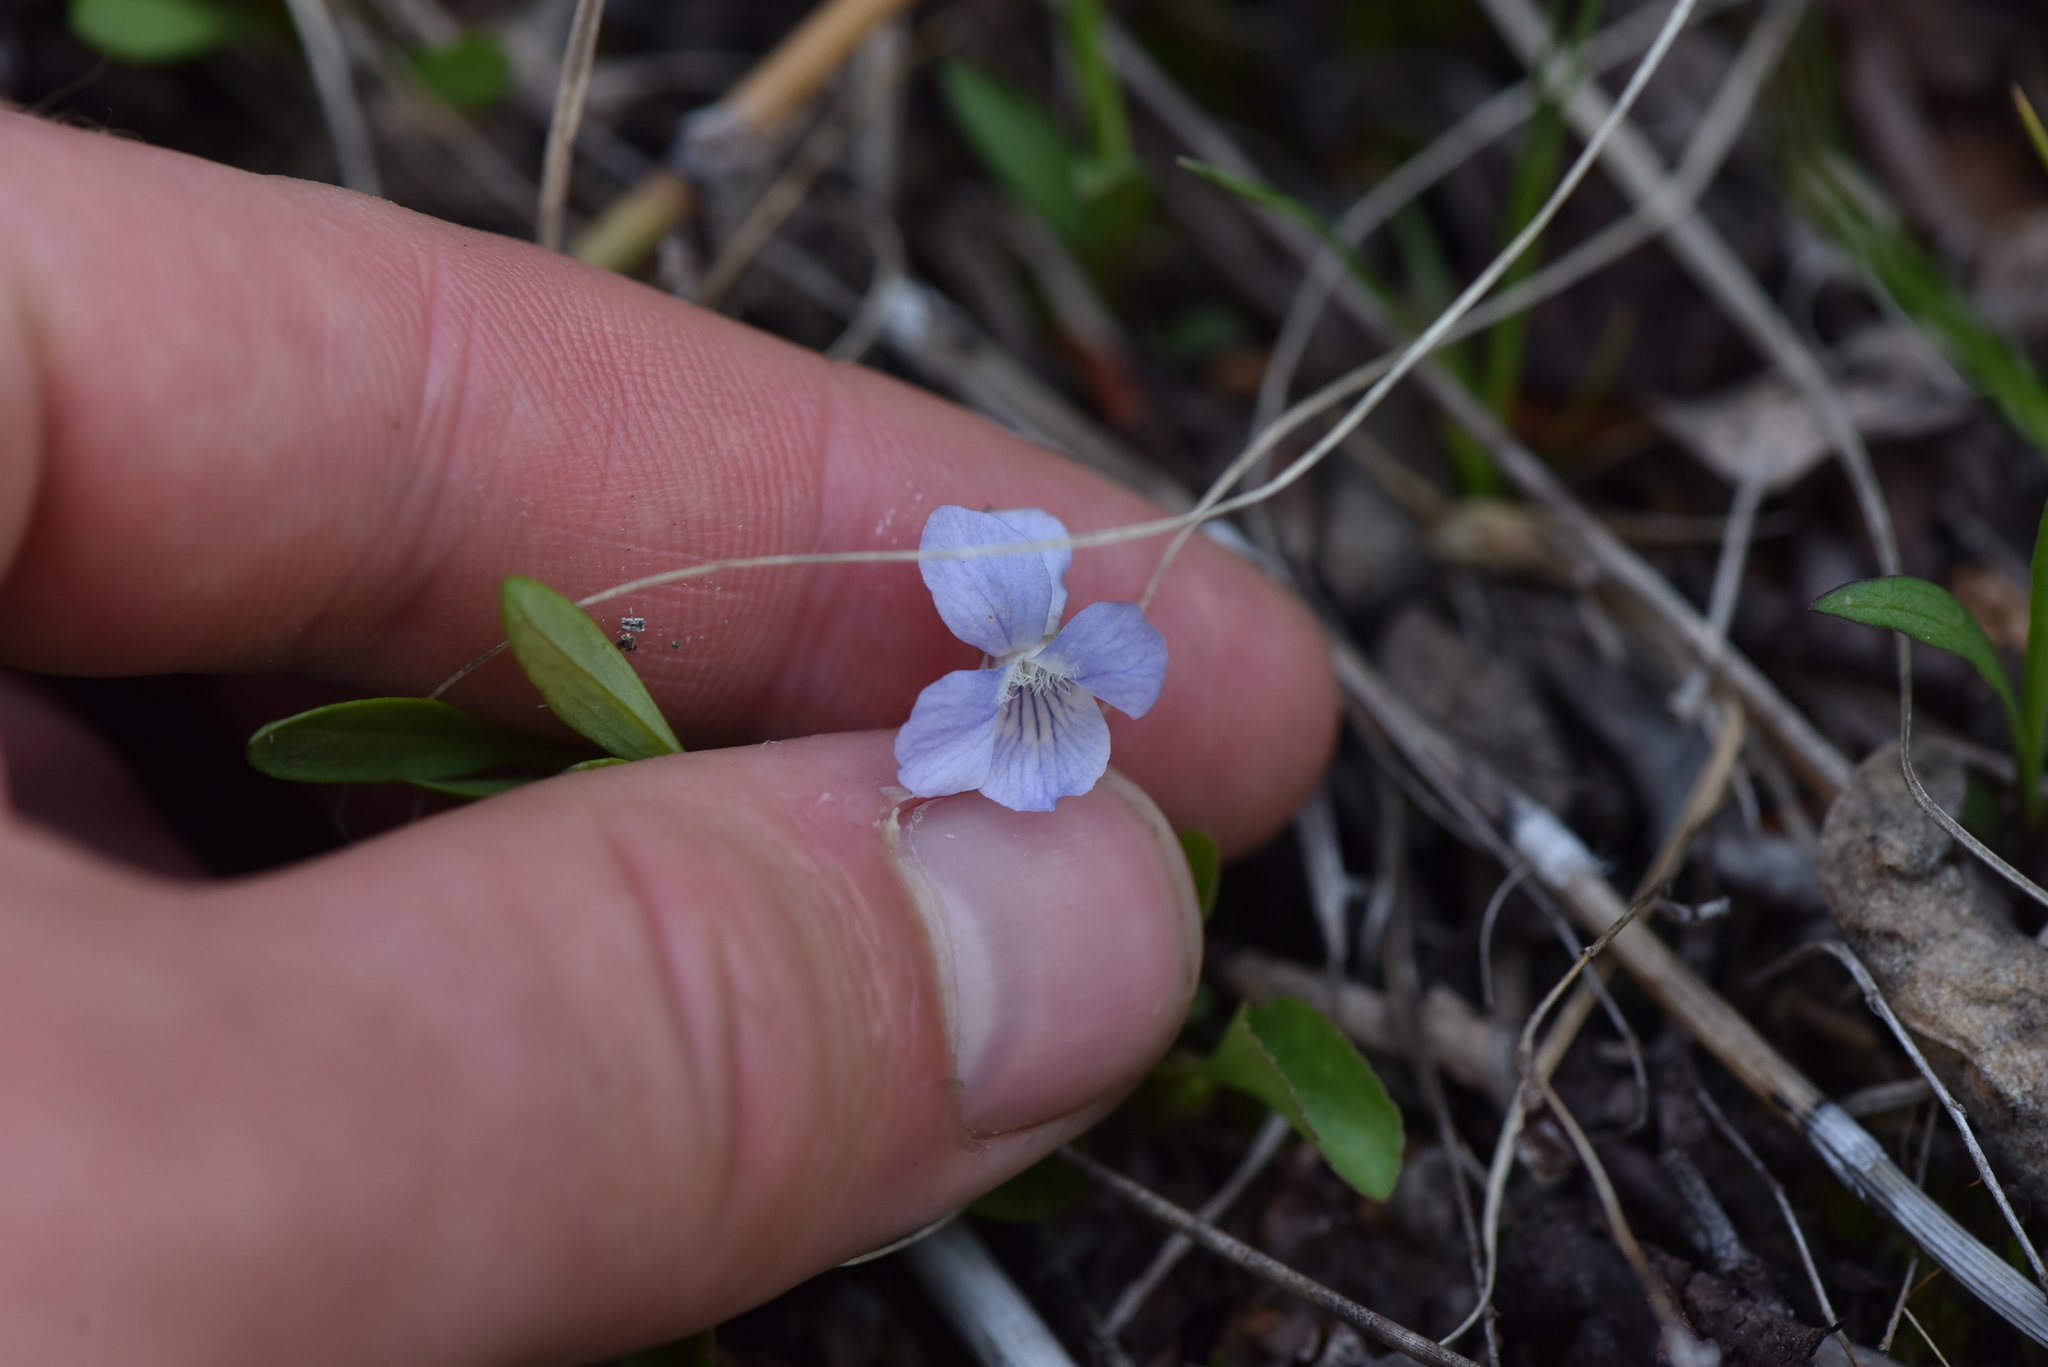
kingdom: Plantae
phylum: Tracheophyta
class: Magnoliopsida
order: Malpighiales
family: Violaceae
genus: Viola
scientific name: Viola adunca
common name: Sand violet
